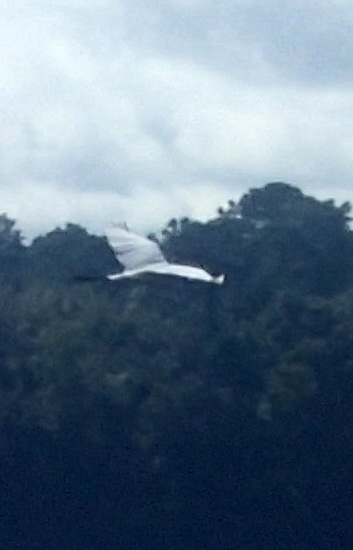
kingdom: Animalia
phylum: Chordata
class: Aves
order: Pelecaniformes
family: Ardeidae
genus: Ardea
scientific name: Ardea alba
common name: Great egret
